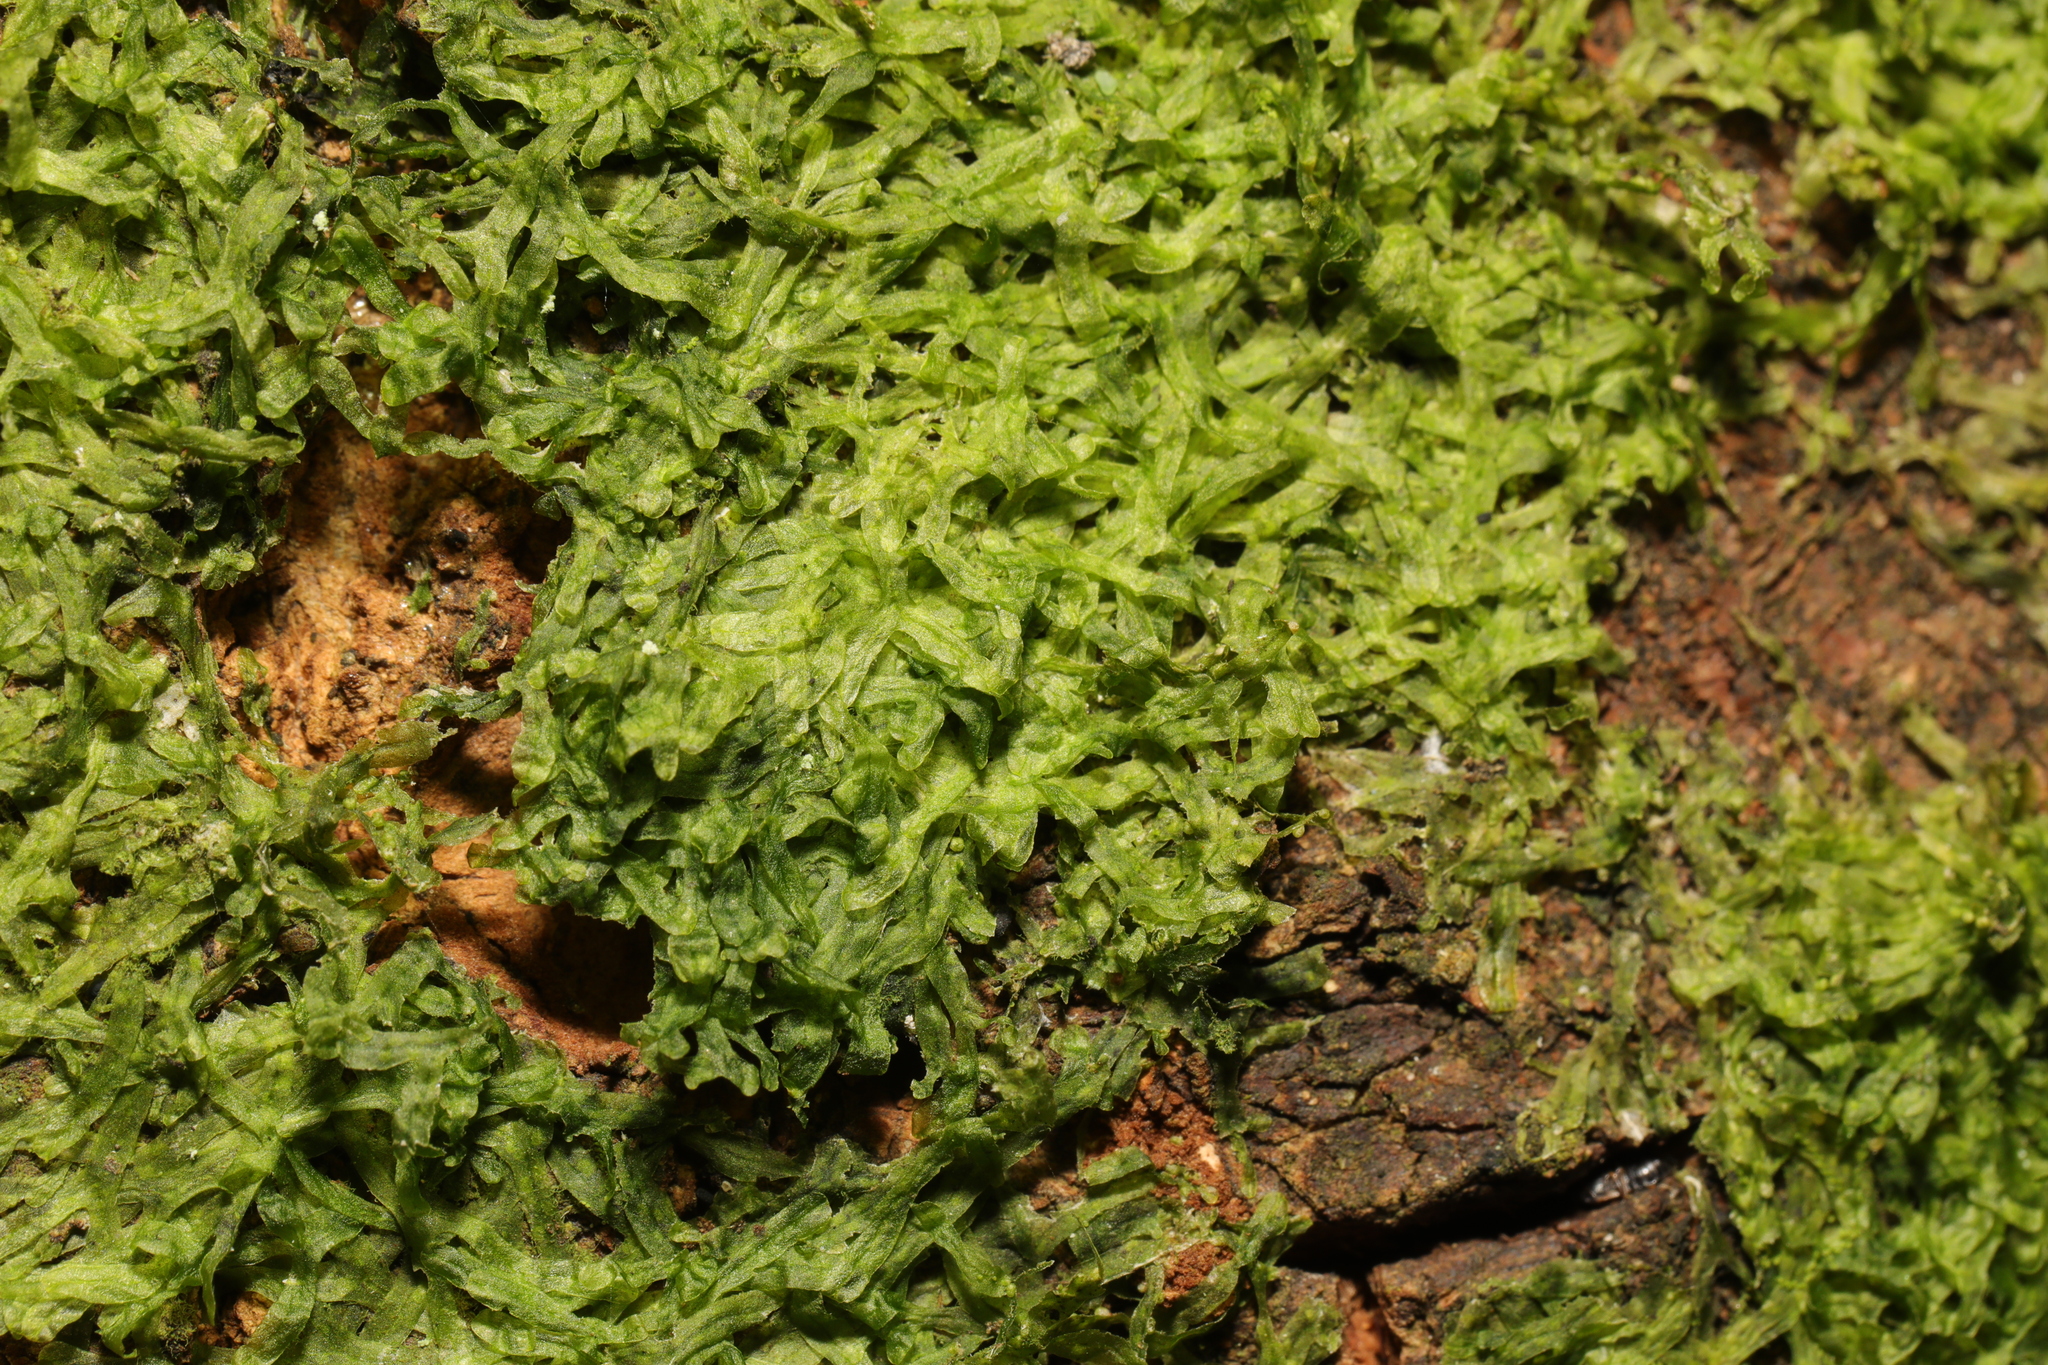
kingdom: Plantae
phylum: Marchantiophyta
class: Jungermanniopsida
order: Metzgeriales
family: Metzgeriaceae
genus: Metzgeria
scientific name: Metzgeria furcata
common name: Forked veilwort
